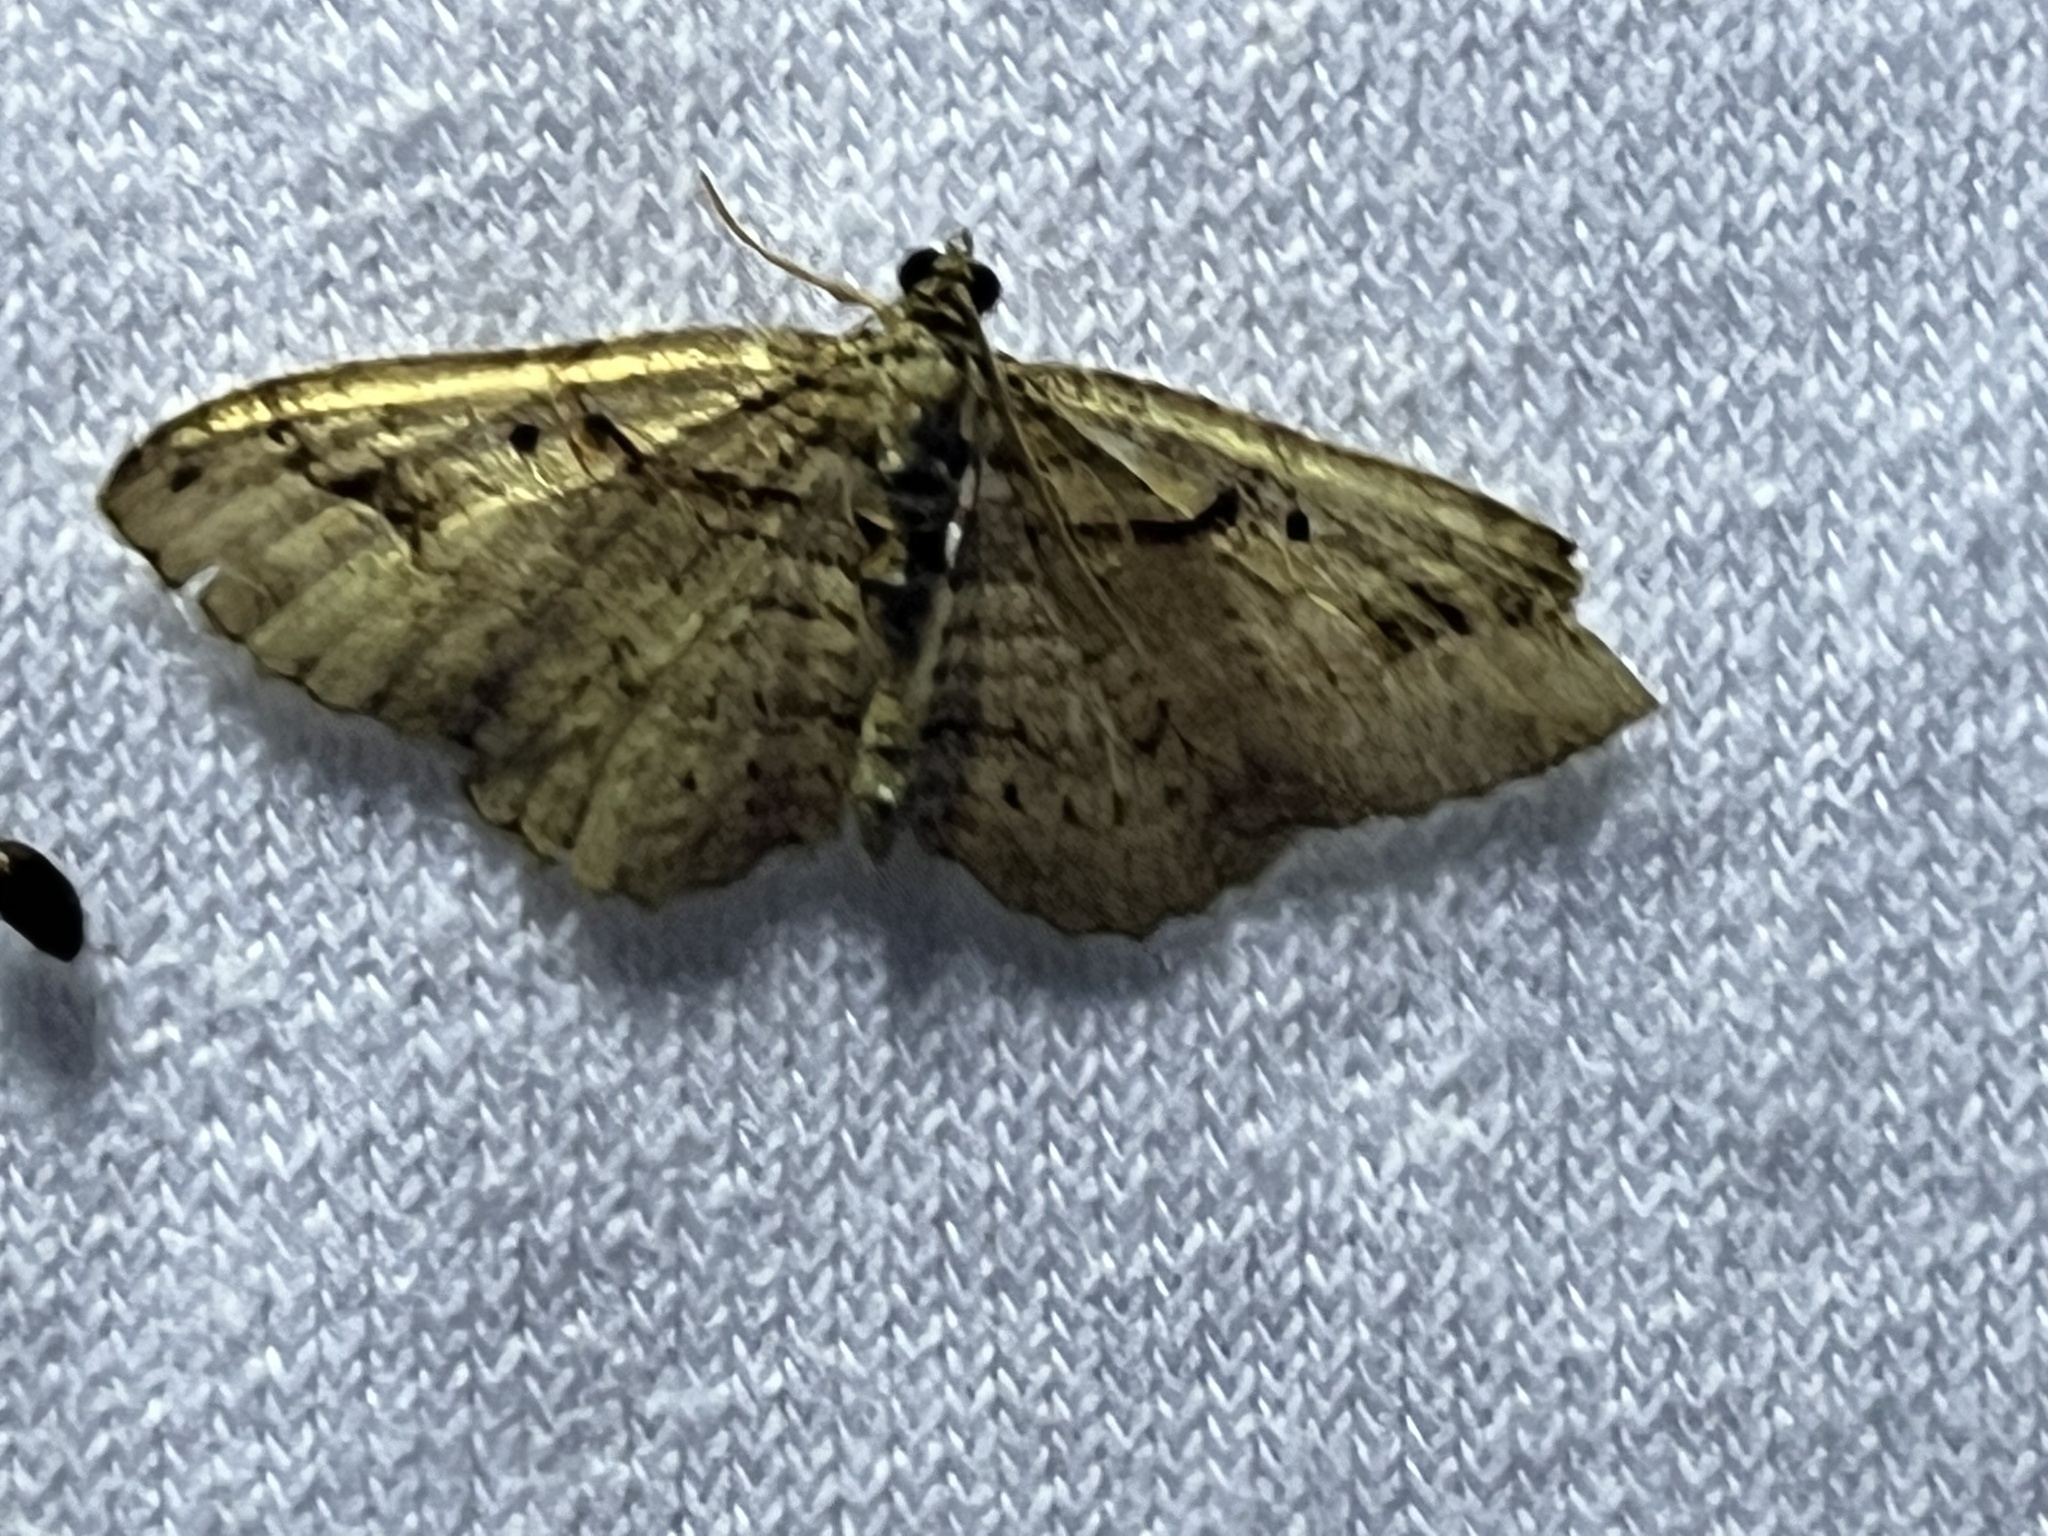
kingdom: Animalia
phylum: Arthropoda
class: Insecta
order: Lepidoptera
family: Geometridae
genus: Costaconvexa
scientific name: Costaconvexa centrostrigaria
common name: Bent-line carpet
